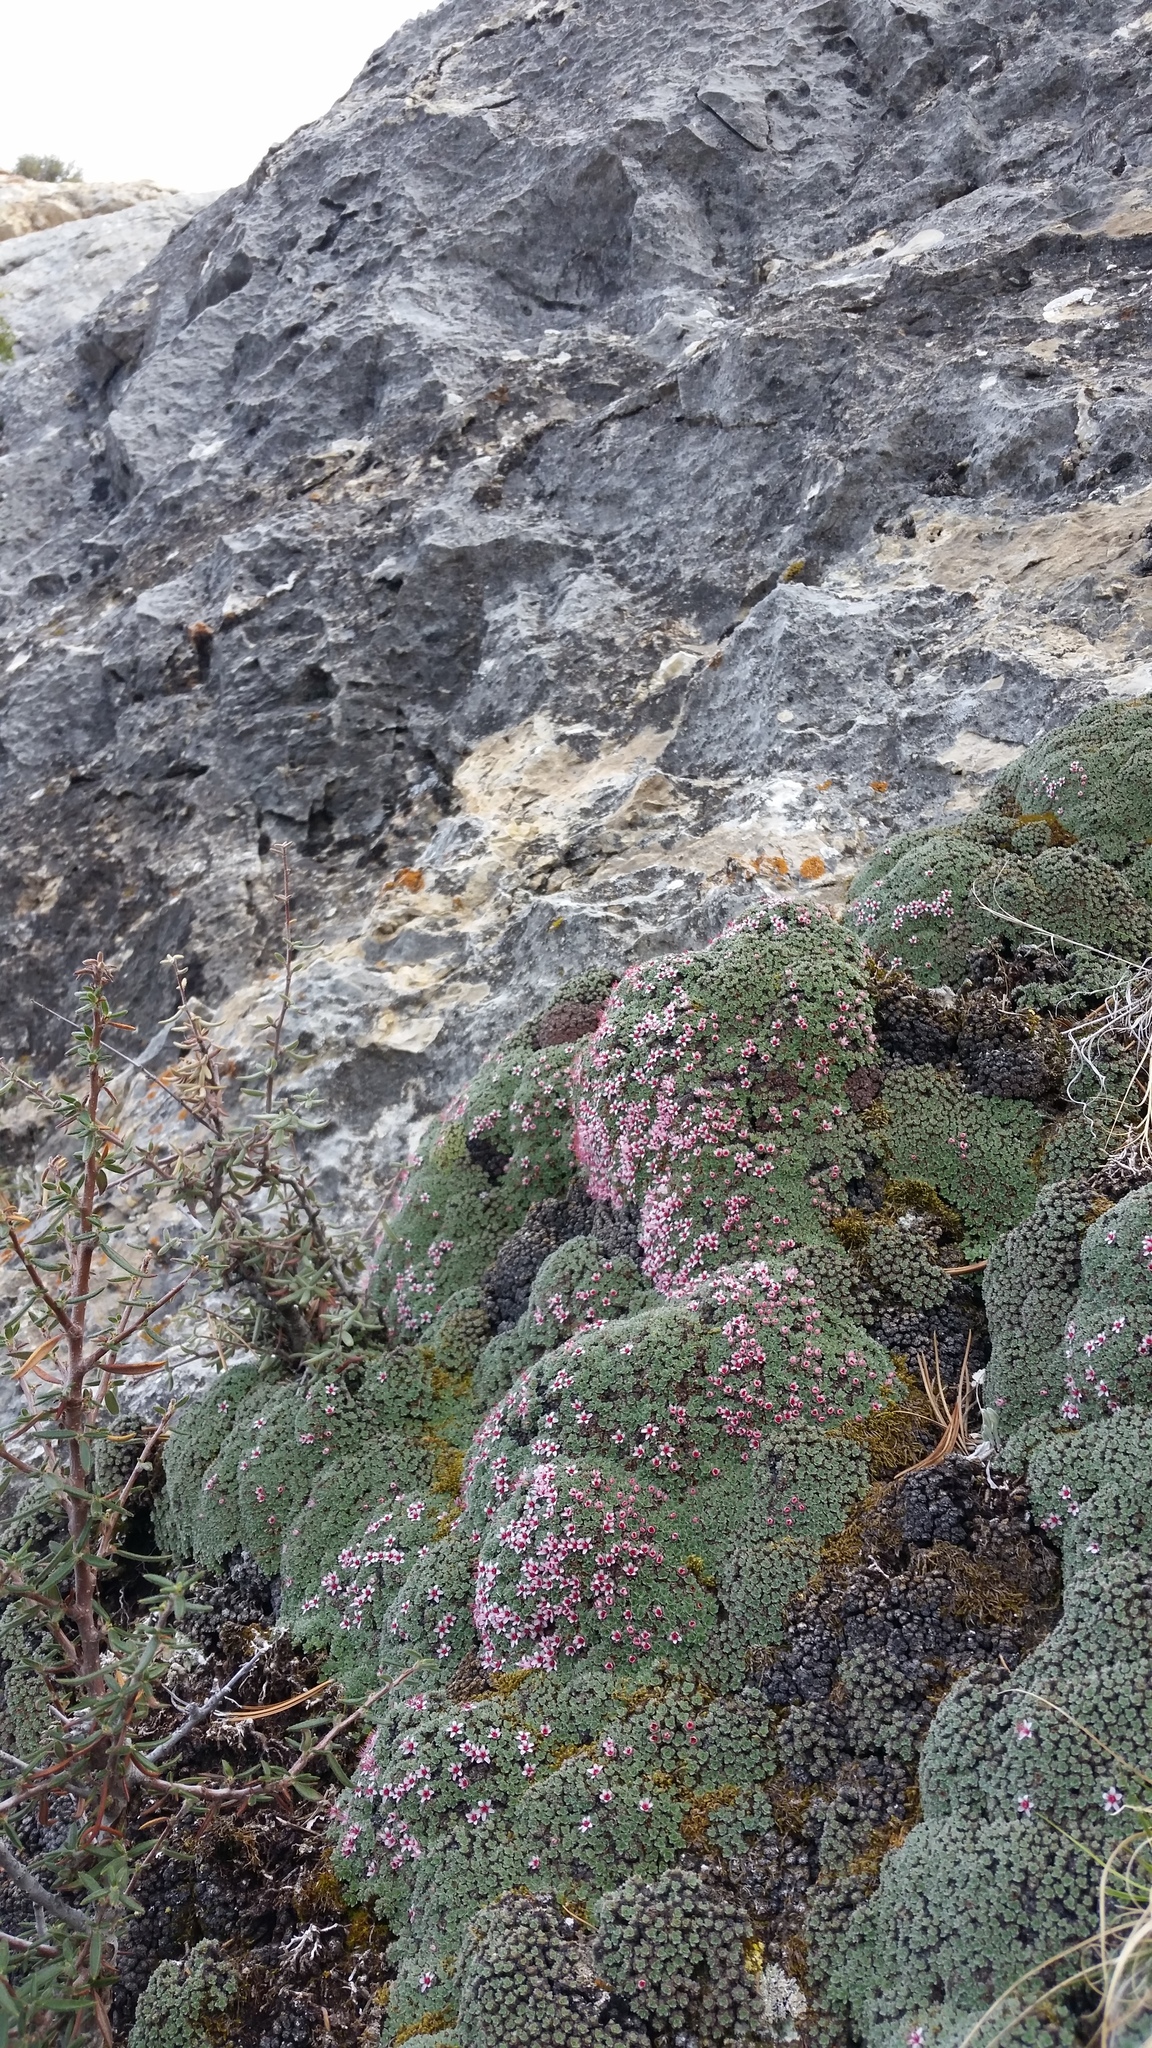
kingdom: Plantae
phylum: Tracheophyta
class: Magnoliopsida
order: Rosales
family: Rosaceae
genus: Kelseya
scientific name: Kelseya uniflora
